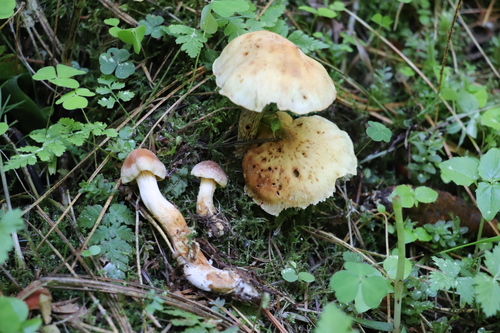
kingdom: Fungi
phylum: Basidiomycota
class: Agaricomycetes
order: Agaricales
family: Strophariaceae
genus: Hypholoma
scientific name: Hypholoma lateritium
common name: Brick caps
